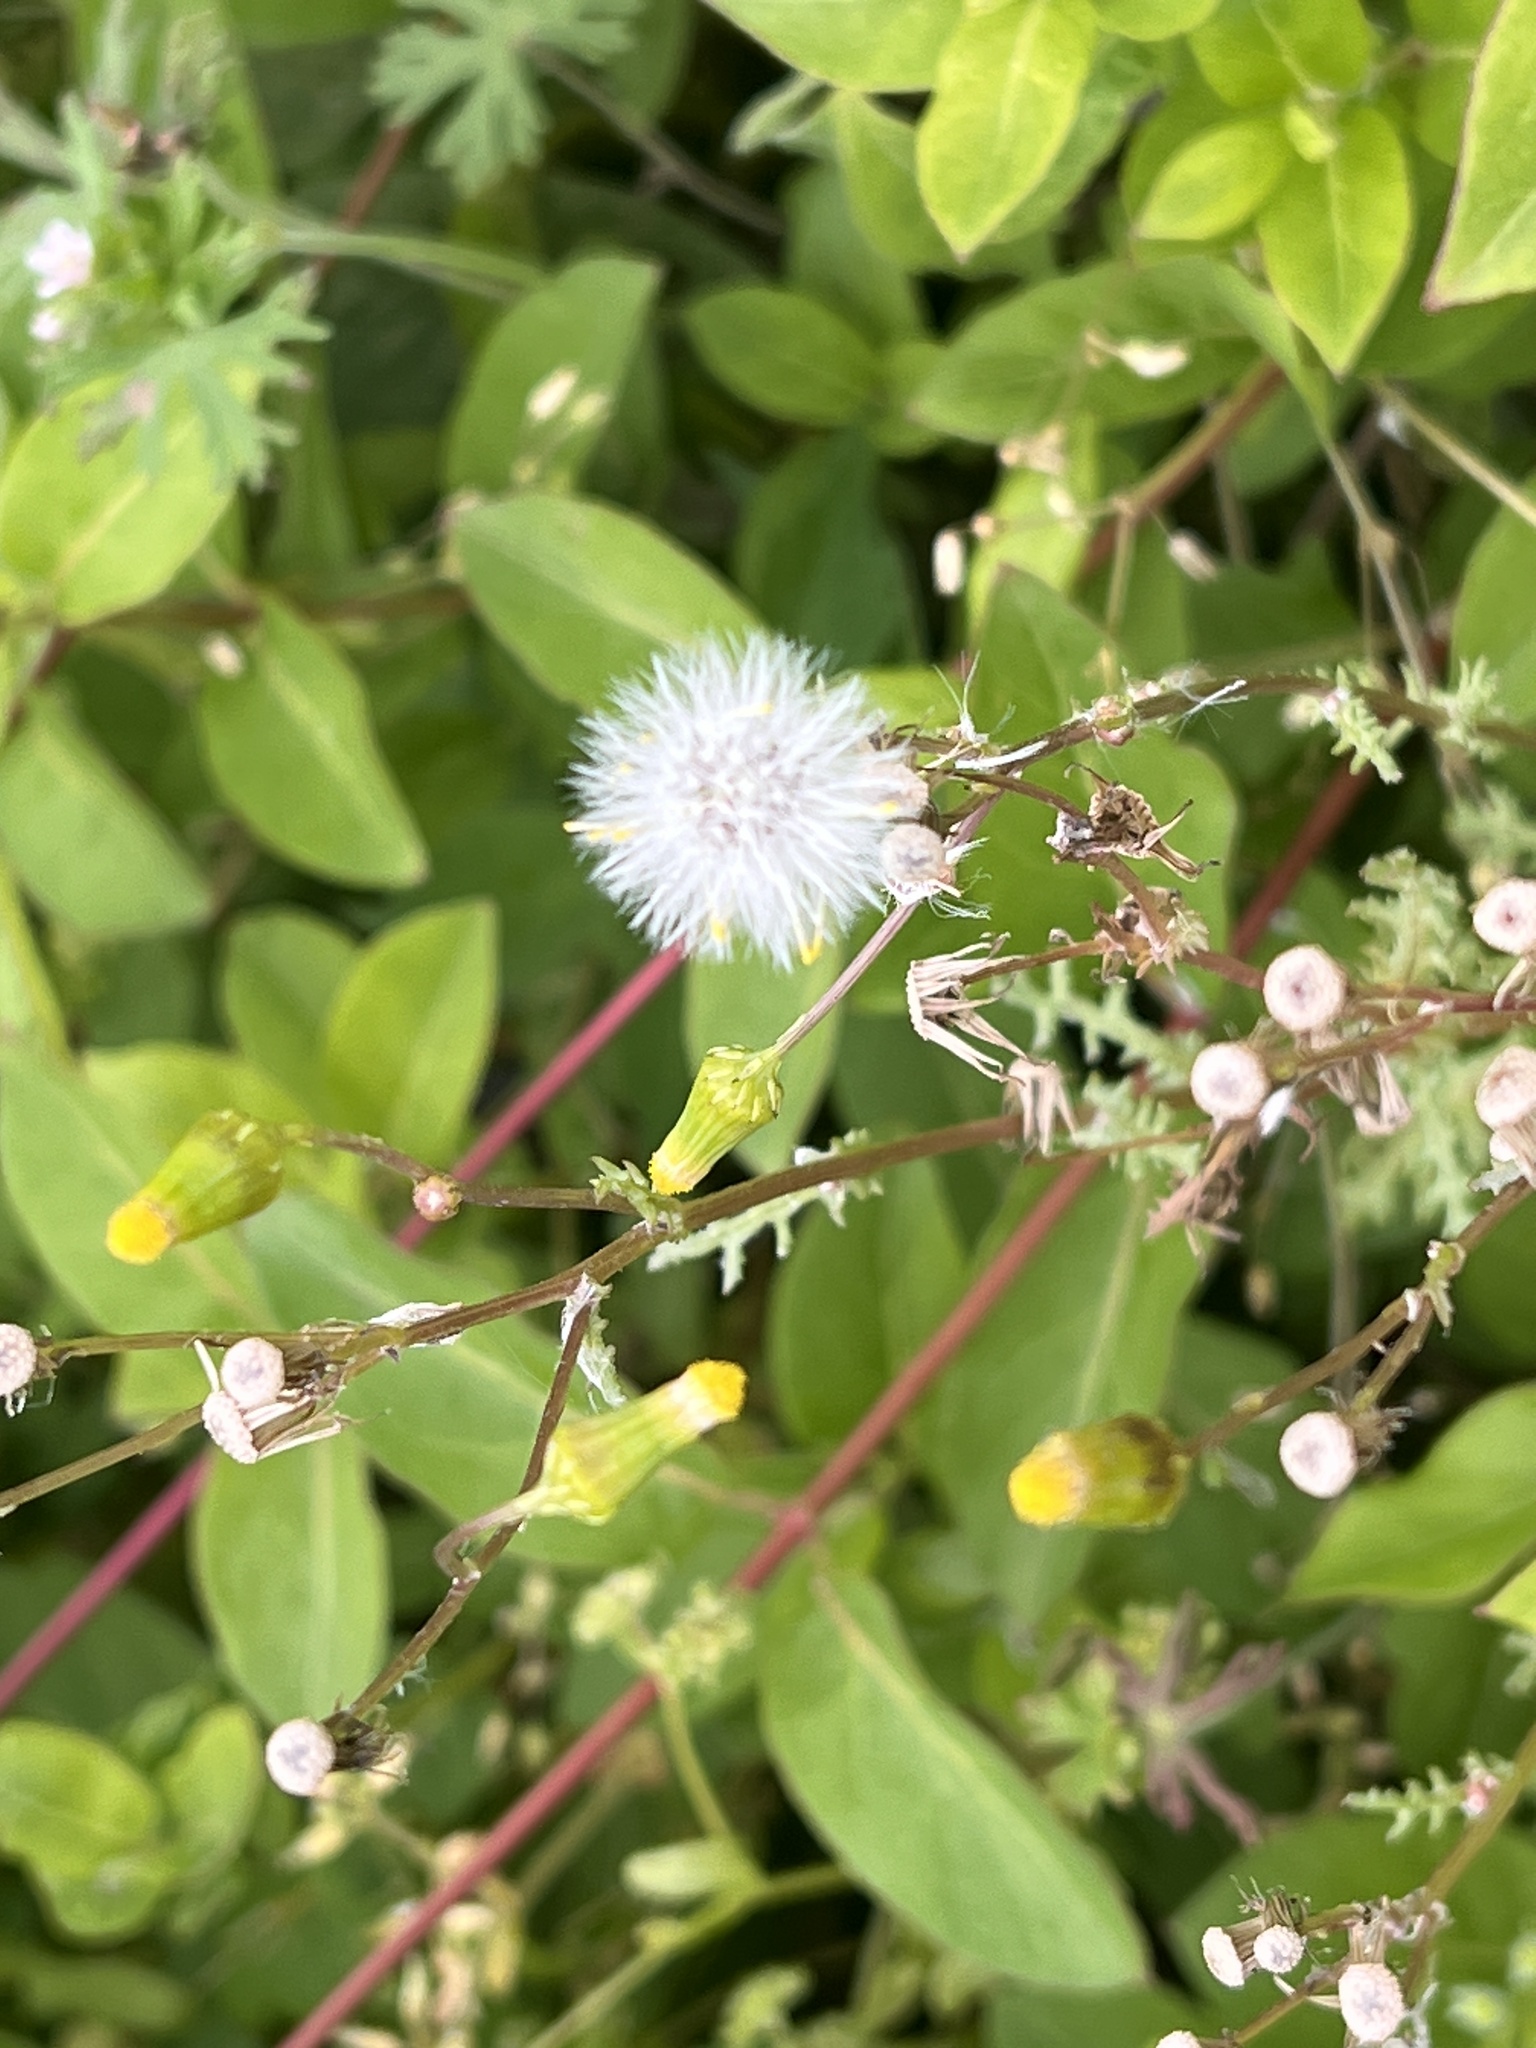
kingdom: Plantae
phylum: Tracheophyta
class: Magnoliopsida
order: Asterales
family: Asteraceae
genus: Senecio
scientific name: Senecio vulgaris
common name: Old-man-in-the-spring
